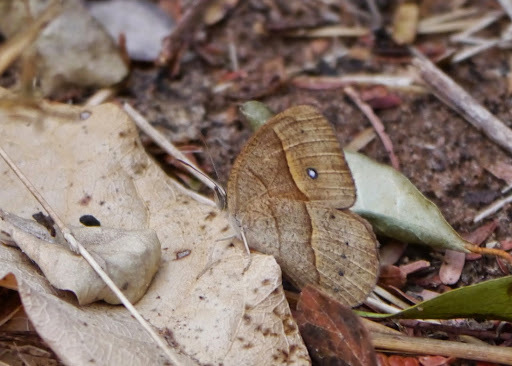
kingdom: Animalia
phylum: Arthropoda
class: Insecta
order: Lepidoptera
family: Nymphalidae
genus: Heteropsis
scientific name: Heteropsis perspicua
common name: Eyed bush brown
